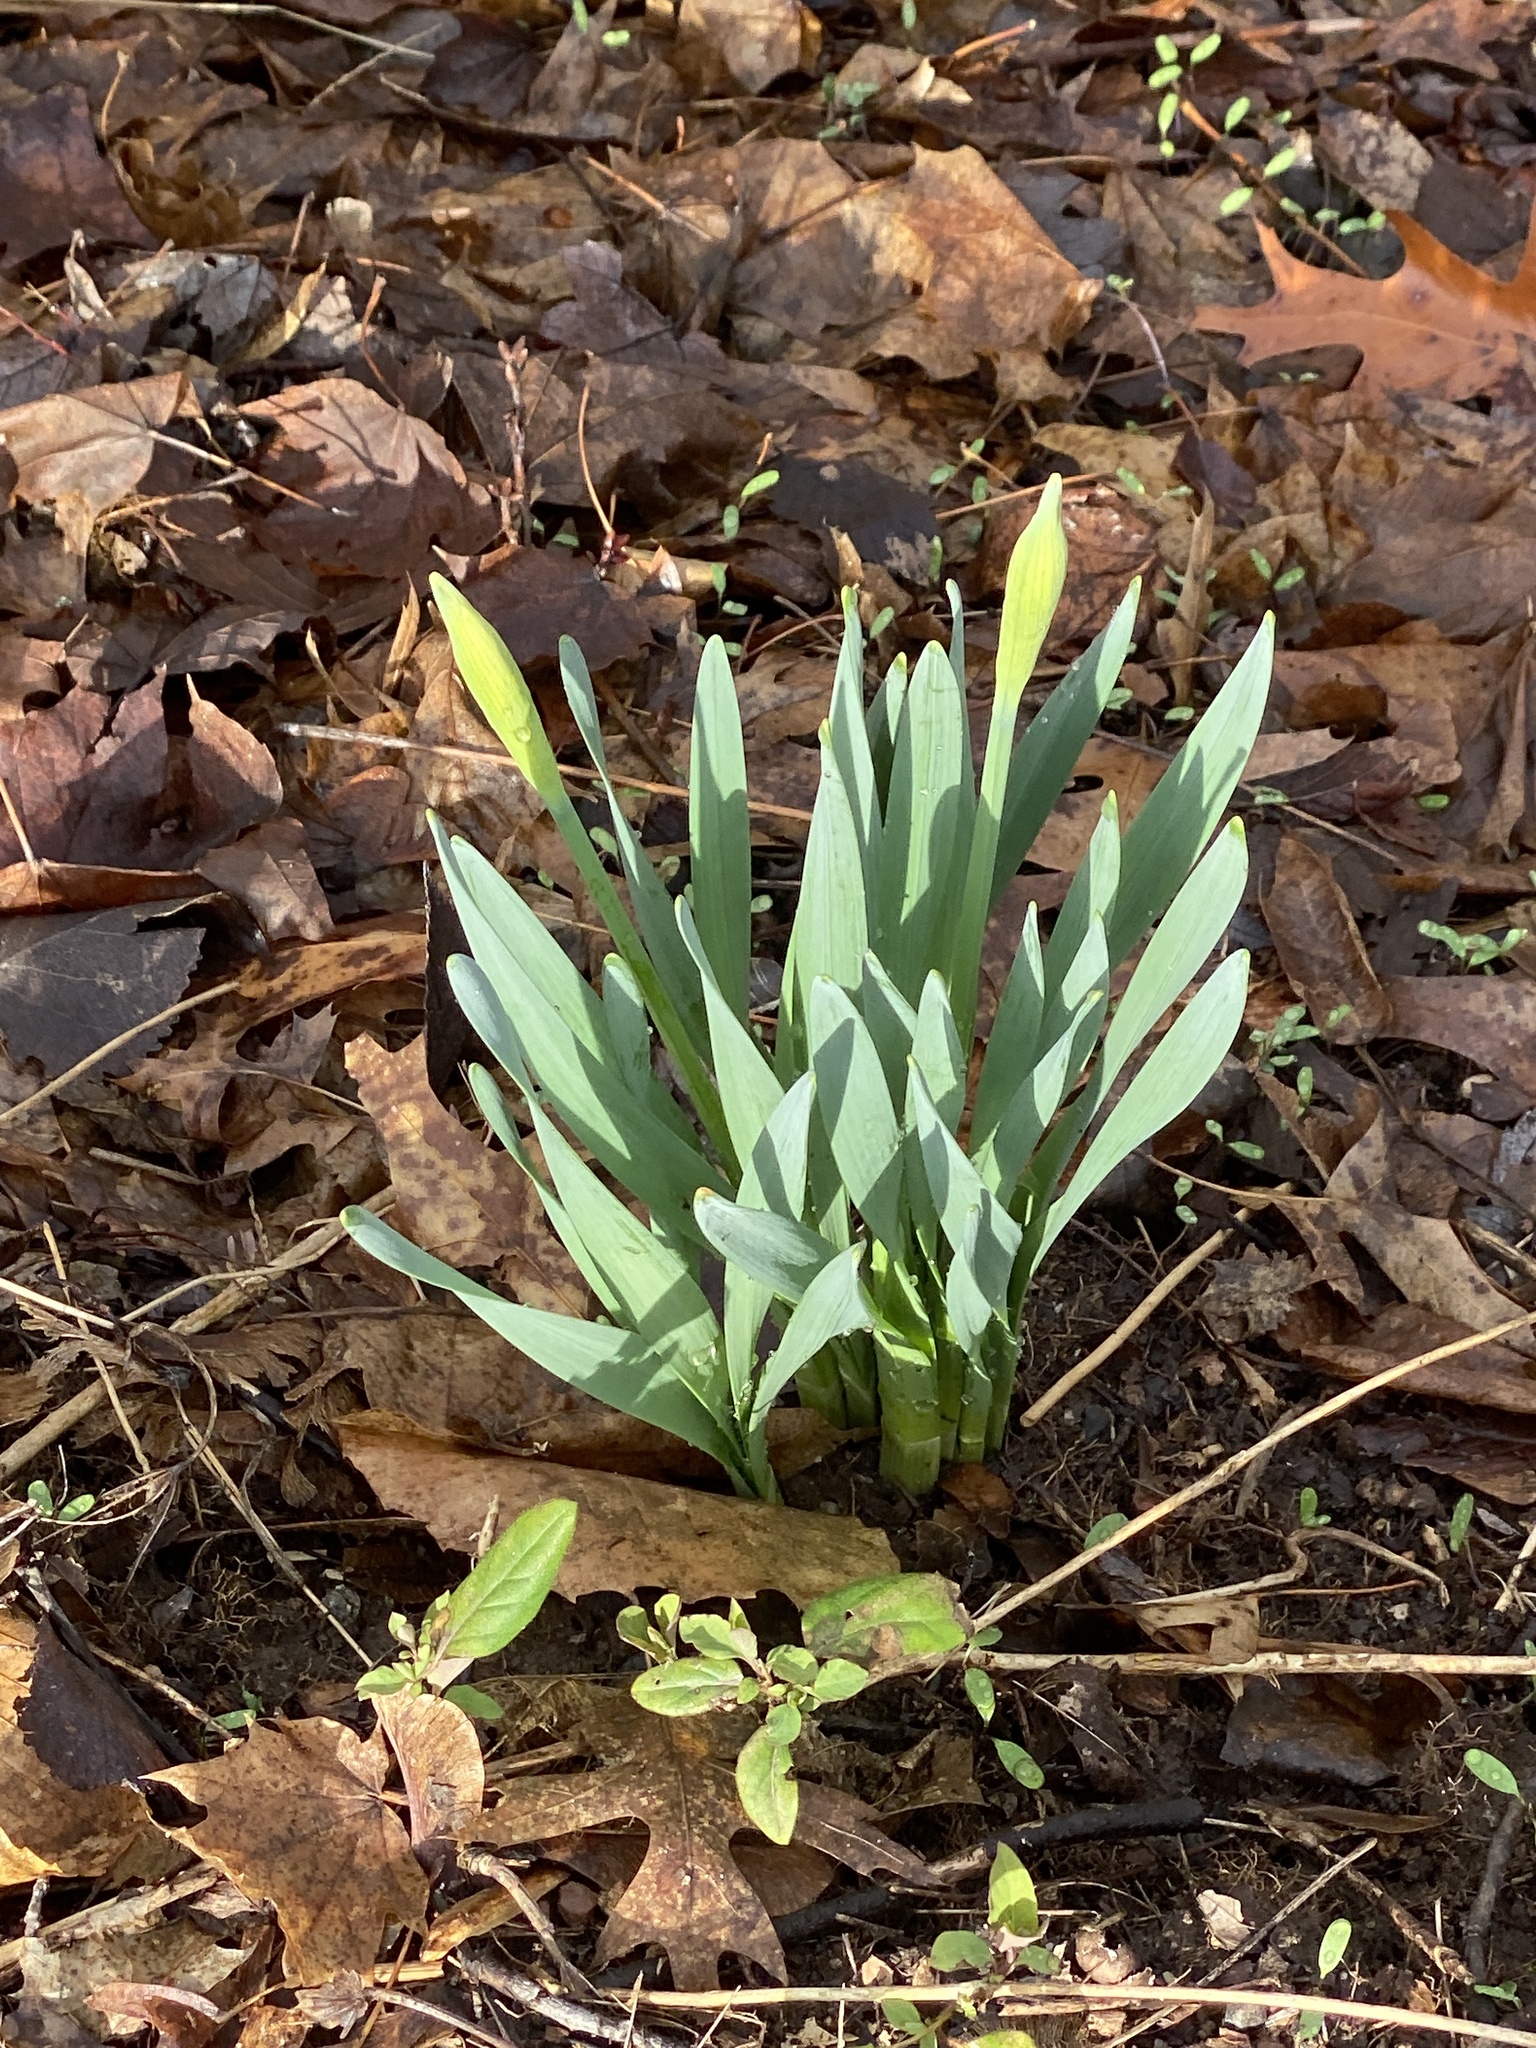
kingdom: Plantae
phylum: Tracheophyta
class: Liliopsida
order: Asparagales
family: Amaryllidaceae
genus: Narcissus
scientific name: Narcissus
